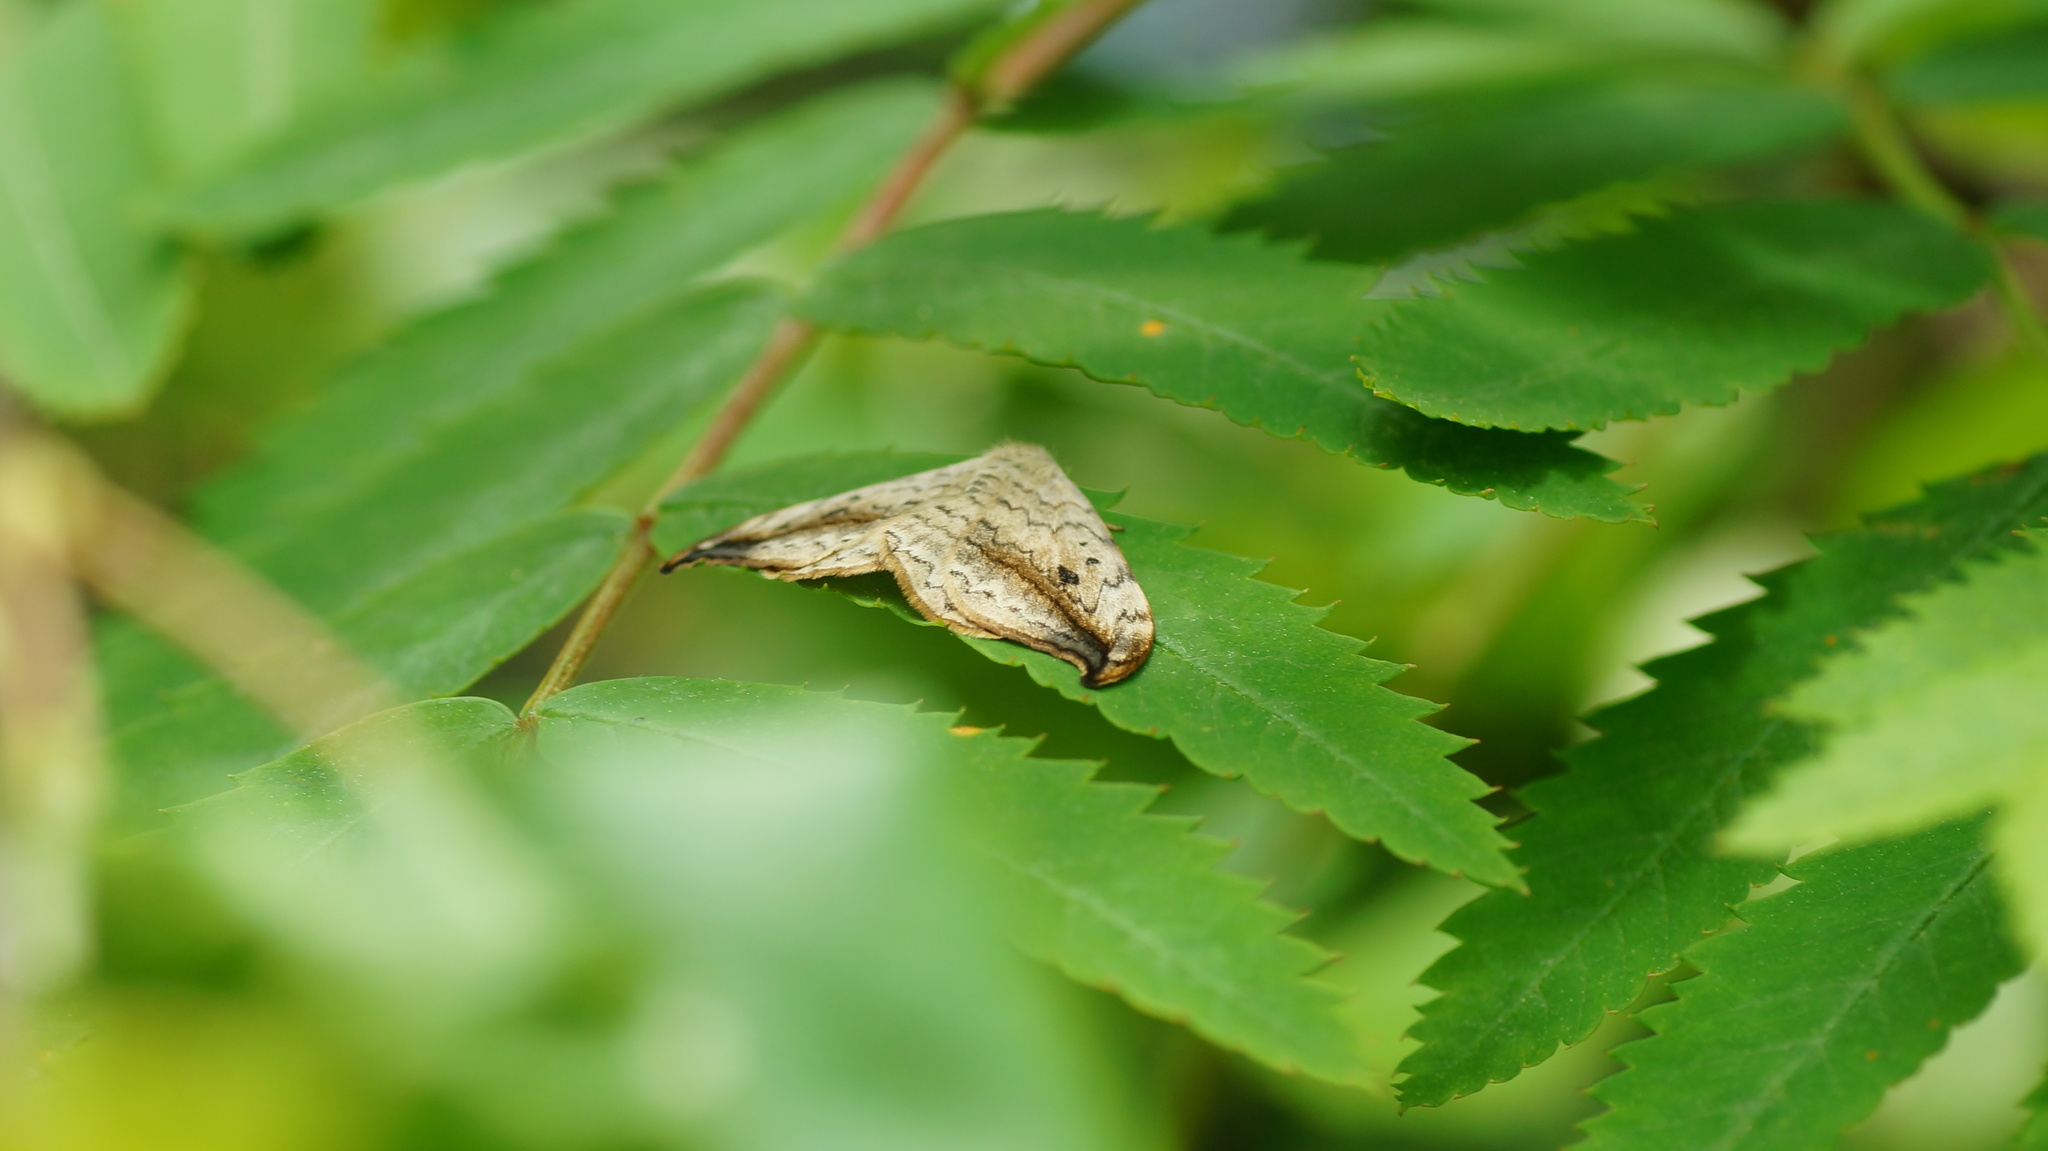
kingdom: Animalia
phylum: Arthropoda
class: Insecta
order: Lepidoptera
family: Drepanidae
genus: Drepana
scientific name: Drepana falcataria
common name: Pebble hook-tip
